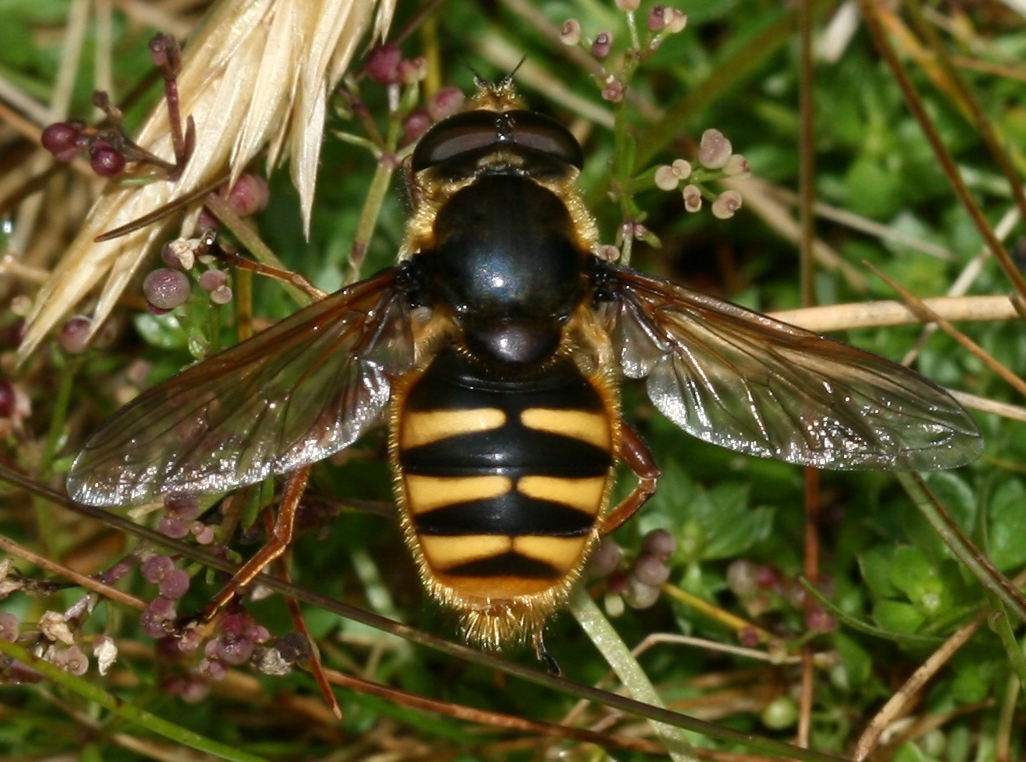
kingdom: Animalia
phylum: Arthropoda
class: Insecta
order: Diptera
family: Syrphidae
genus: Sericomyia
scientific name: Sericomyia silentis
